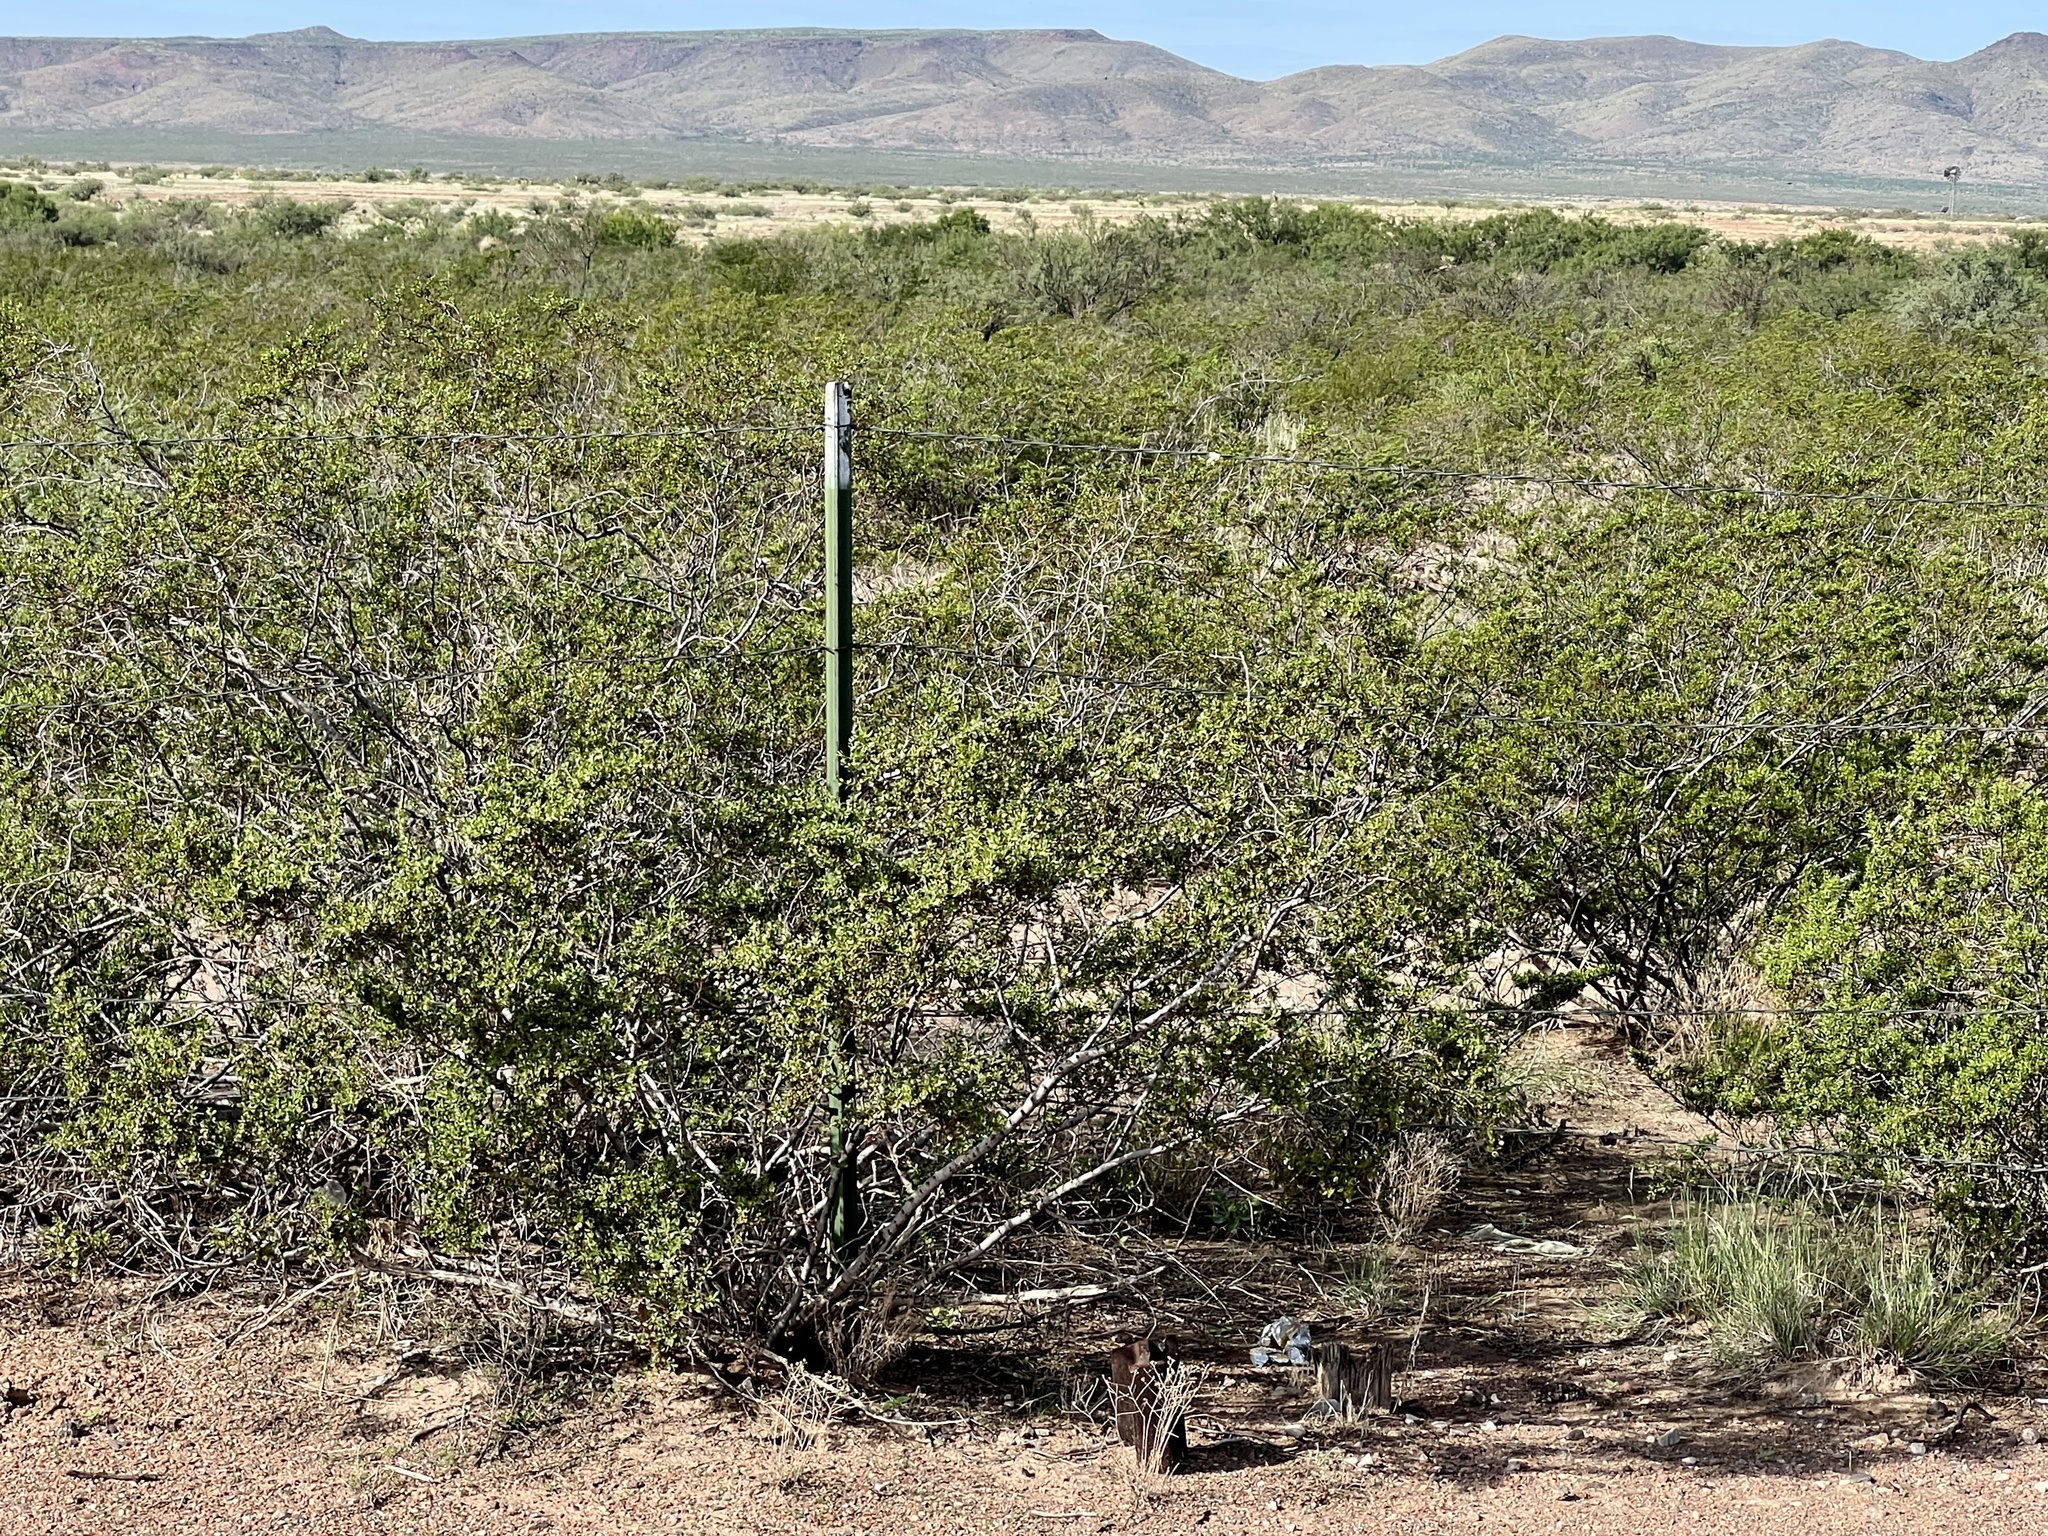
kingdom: Plantae
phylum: Tracheophyta
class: Magnoliopsida
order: Zygophyllales
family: Zygophyllaceae
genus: Larrea
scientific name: Larrea tridentata
